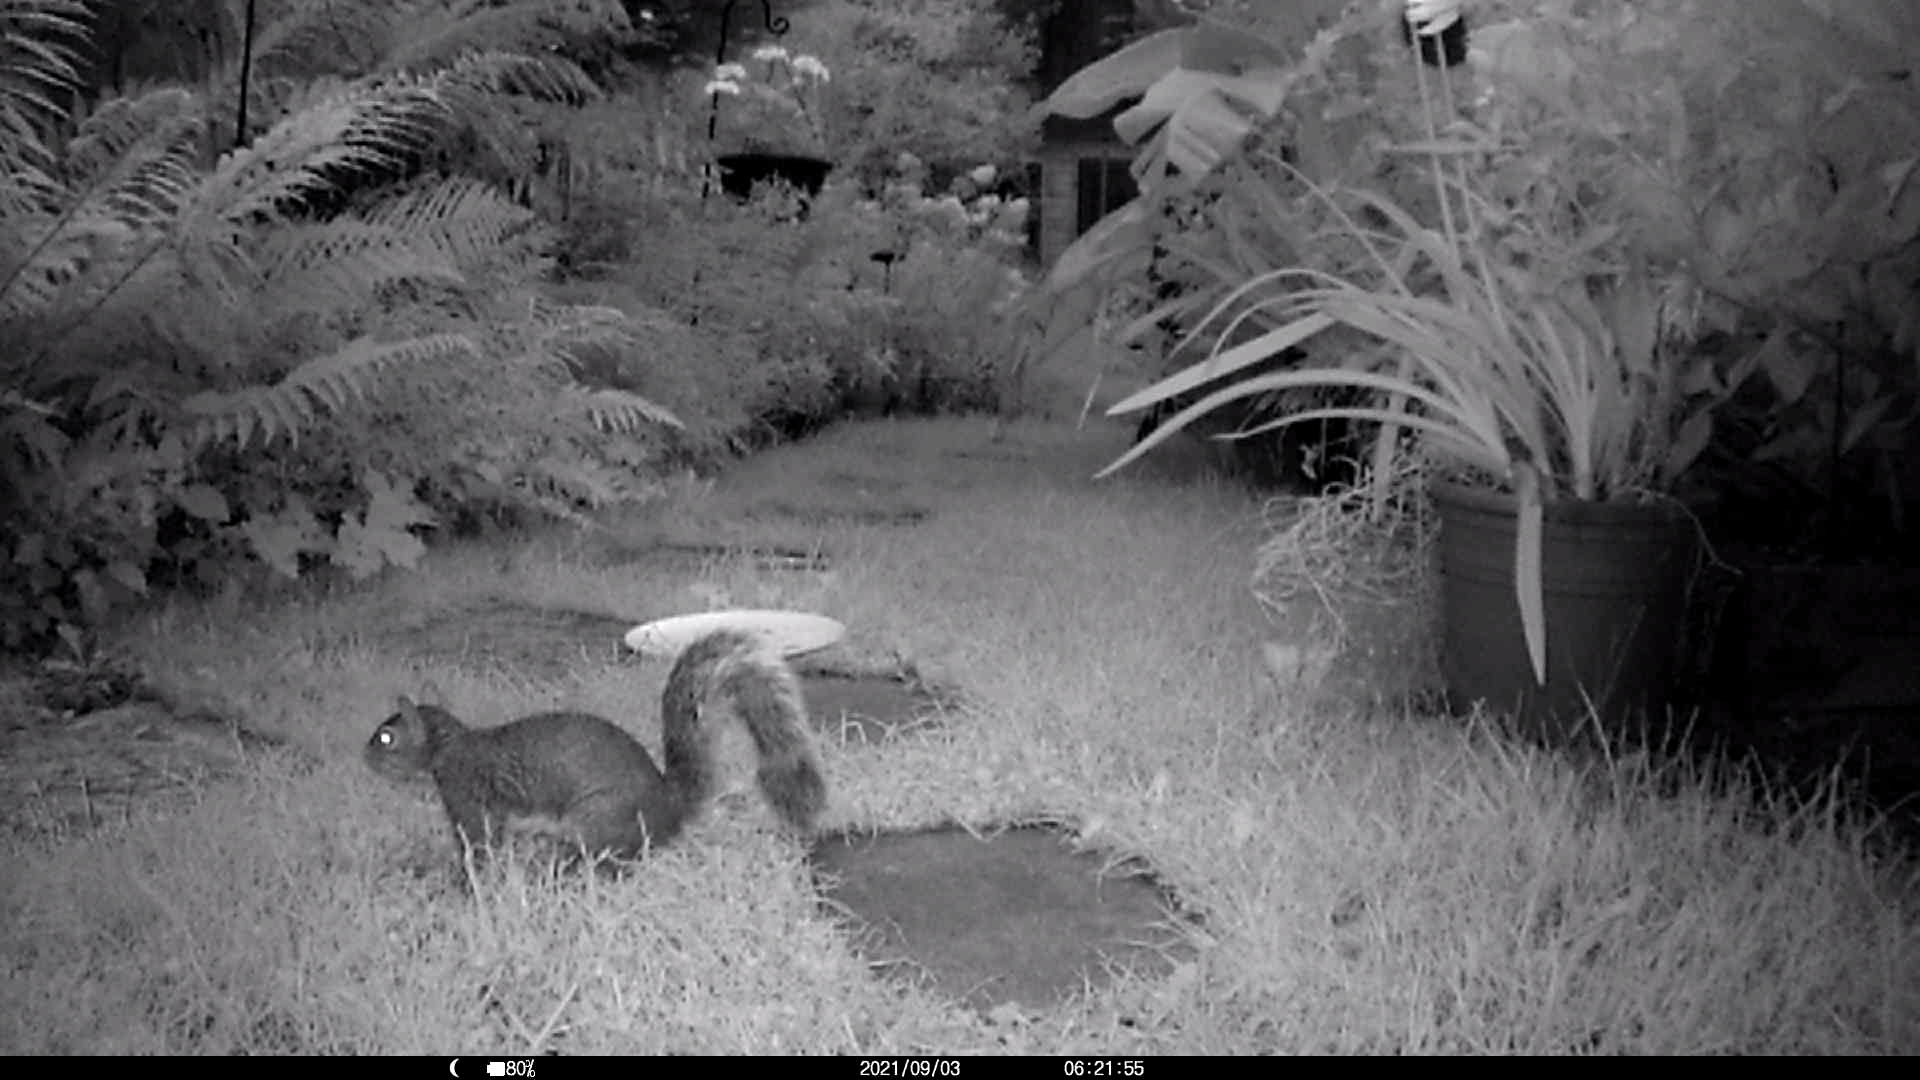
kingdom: Animalia
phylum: Chordata
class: Mammalia
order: Rodentia
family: Sciuridae
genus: Sciurus
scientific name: Sciurus carolinensis
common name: Eastern gray squirrel
